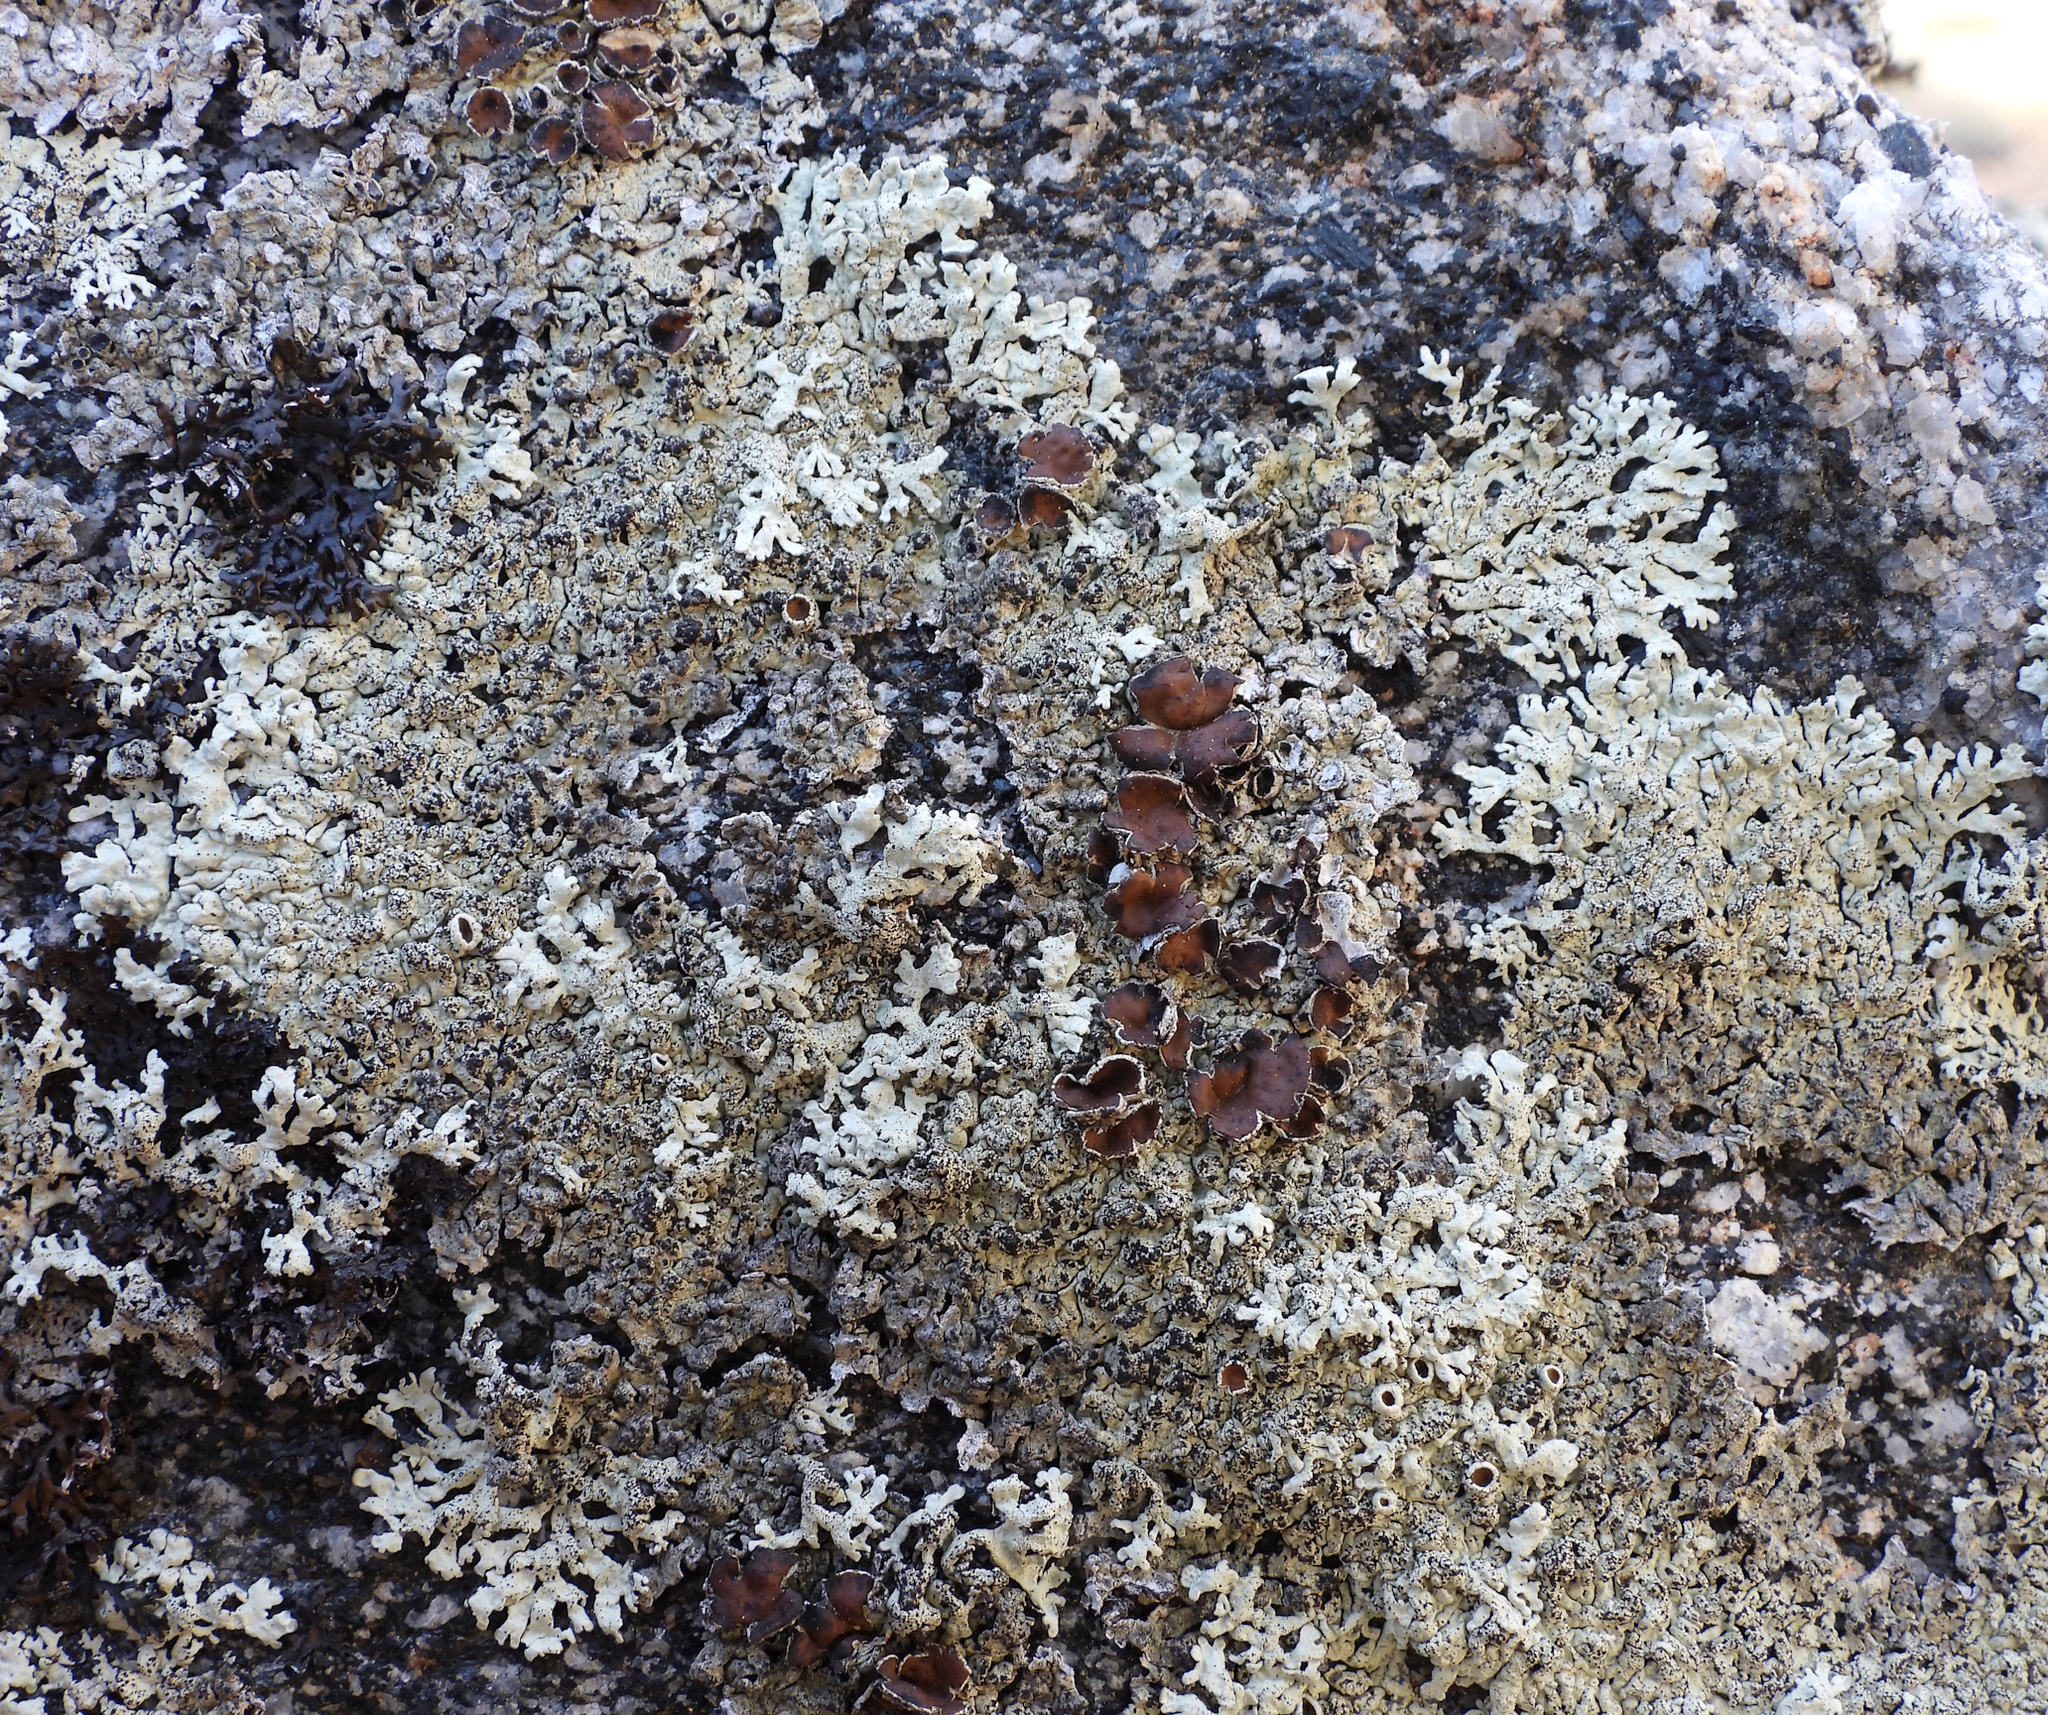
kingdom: Fungi
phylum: Ascomycota
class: Lecanoromycetes
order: Lecanorales
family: Parmeliaceae
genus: Arctoparmelia
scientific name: Arctoparmelia centrifuga
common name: Concentric ring lichen
